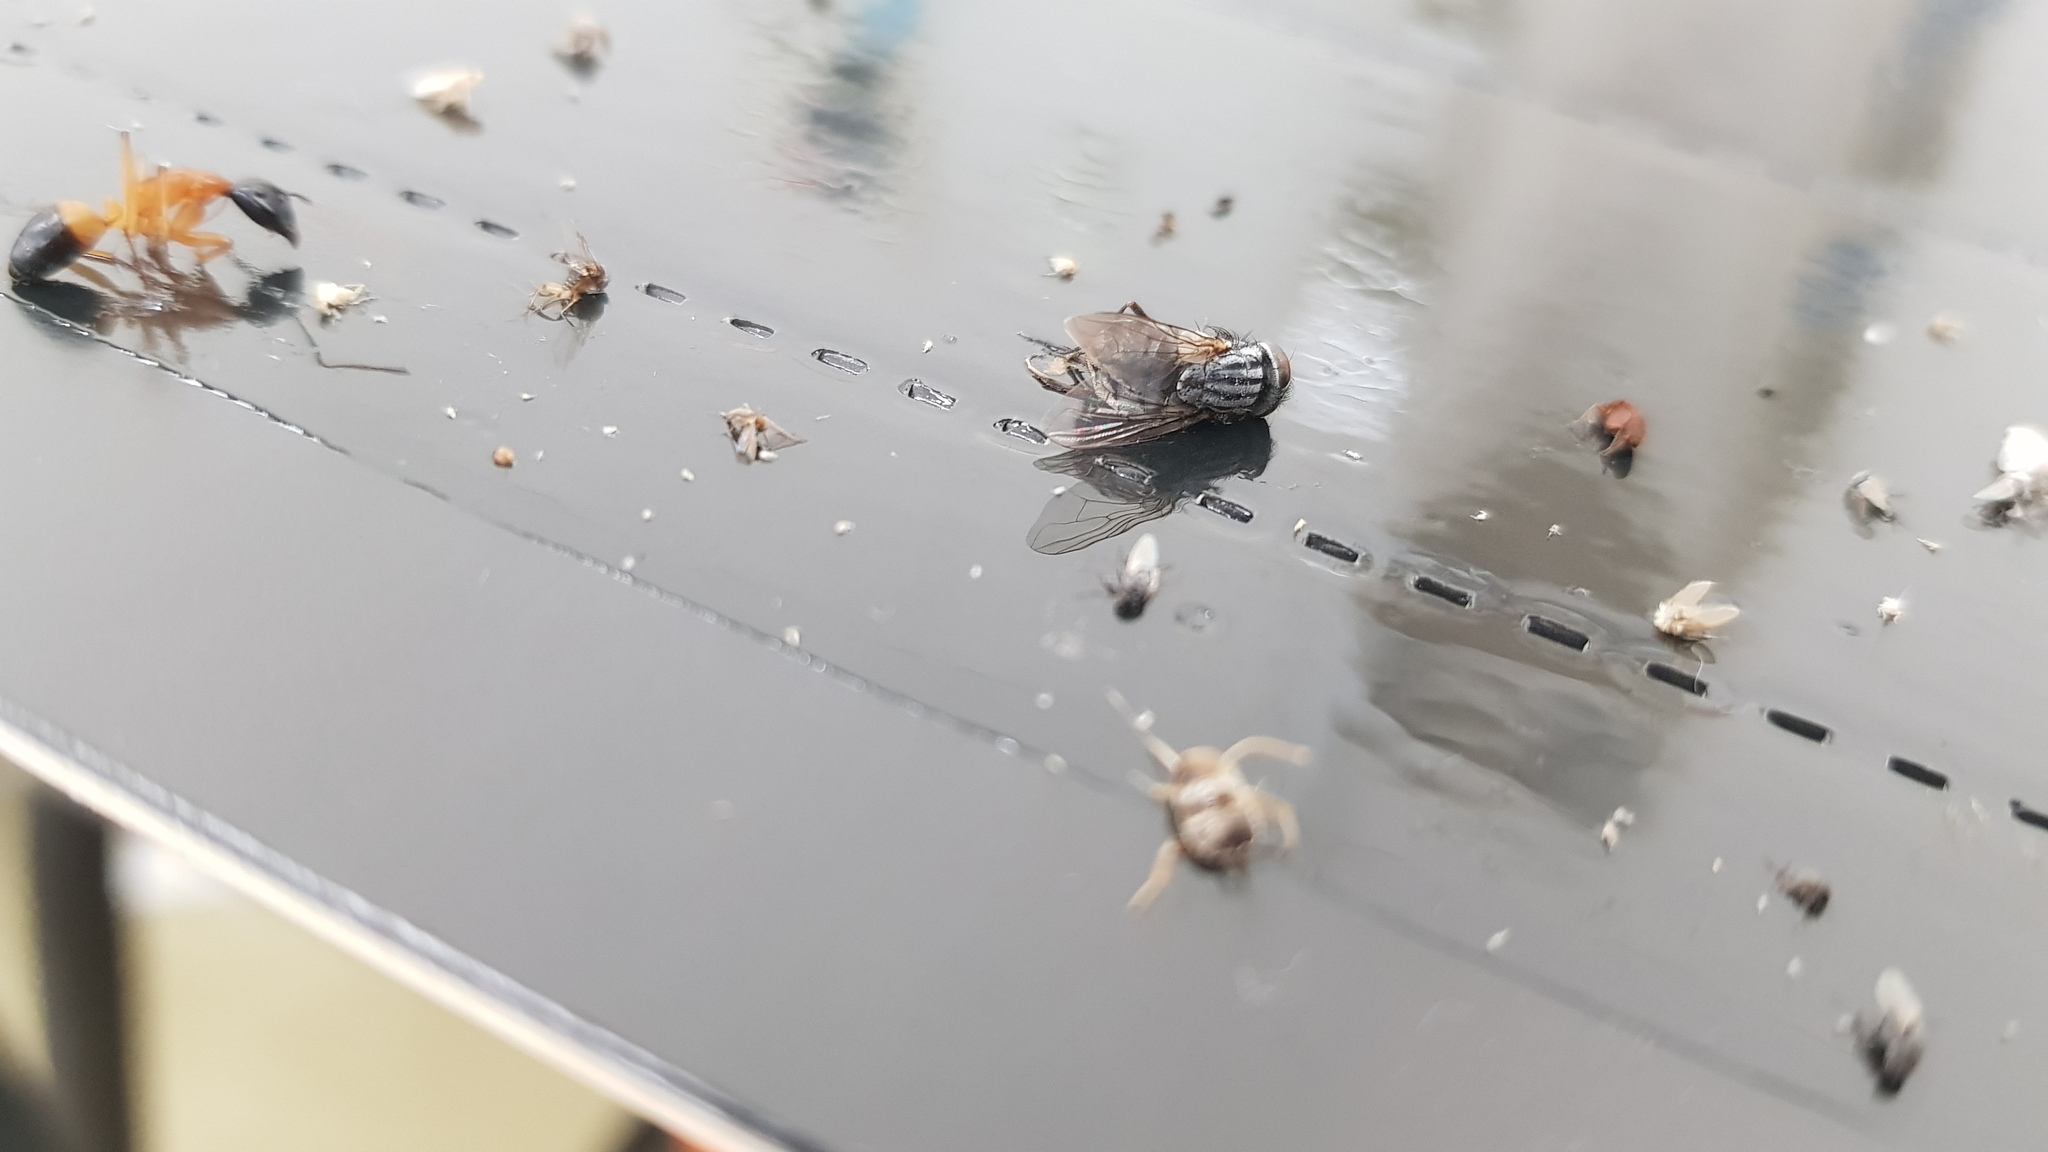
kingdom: Animalia
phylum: Arthropoda
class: Insecta
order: Diptera
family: Muscidae
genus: Synthesiomyia
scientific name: Synthesiomyia nudiseta
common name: Fly
